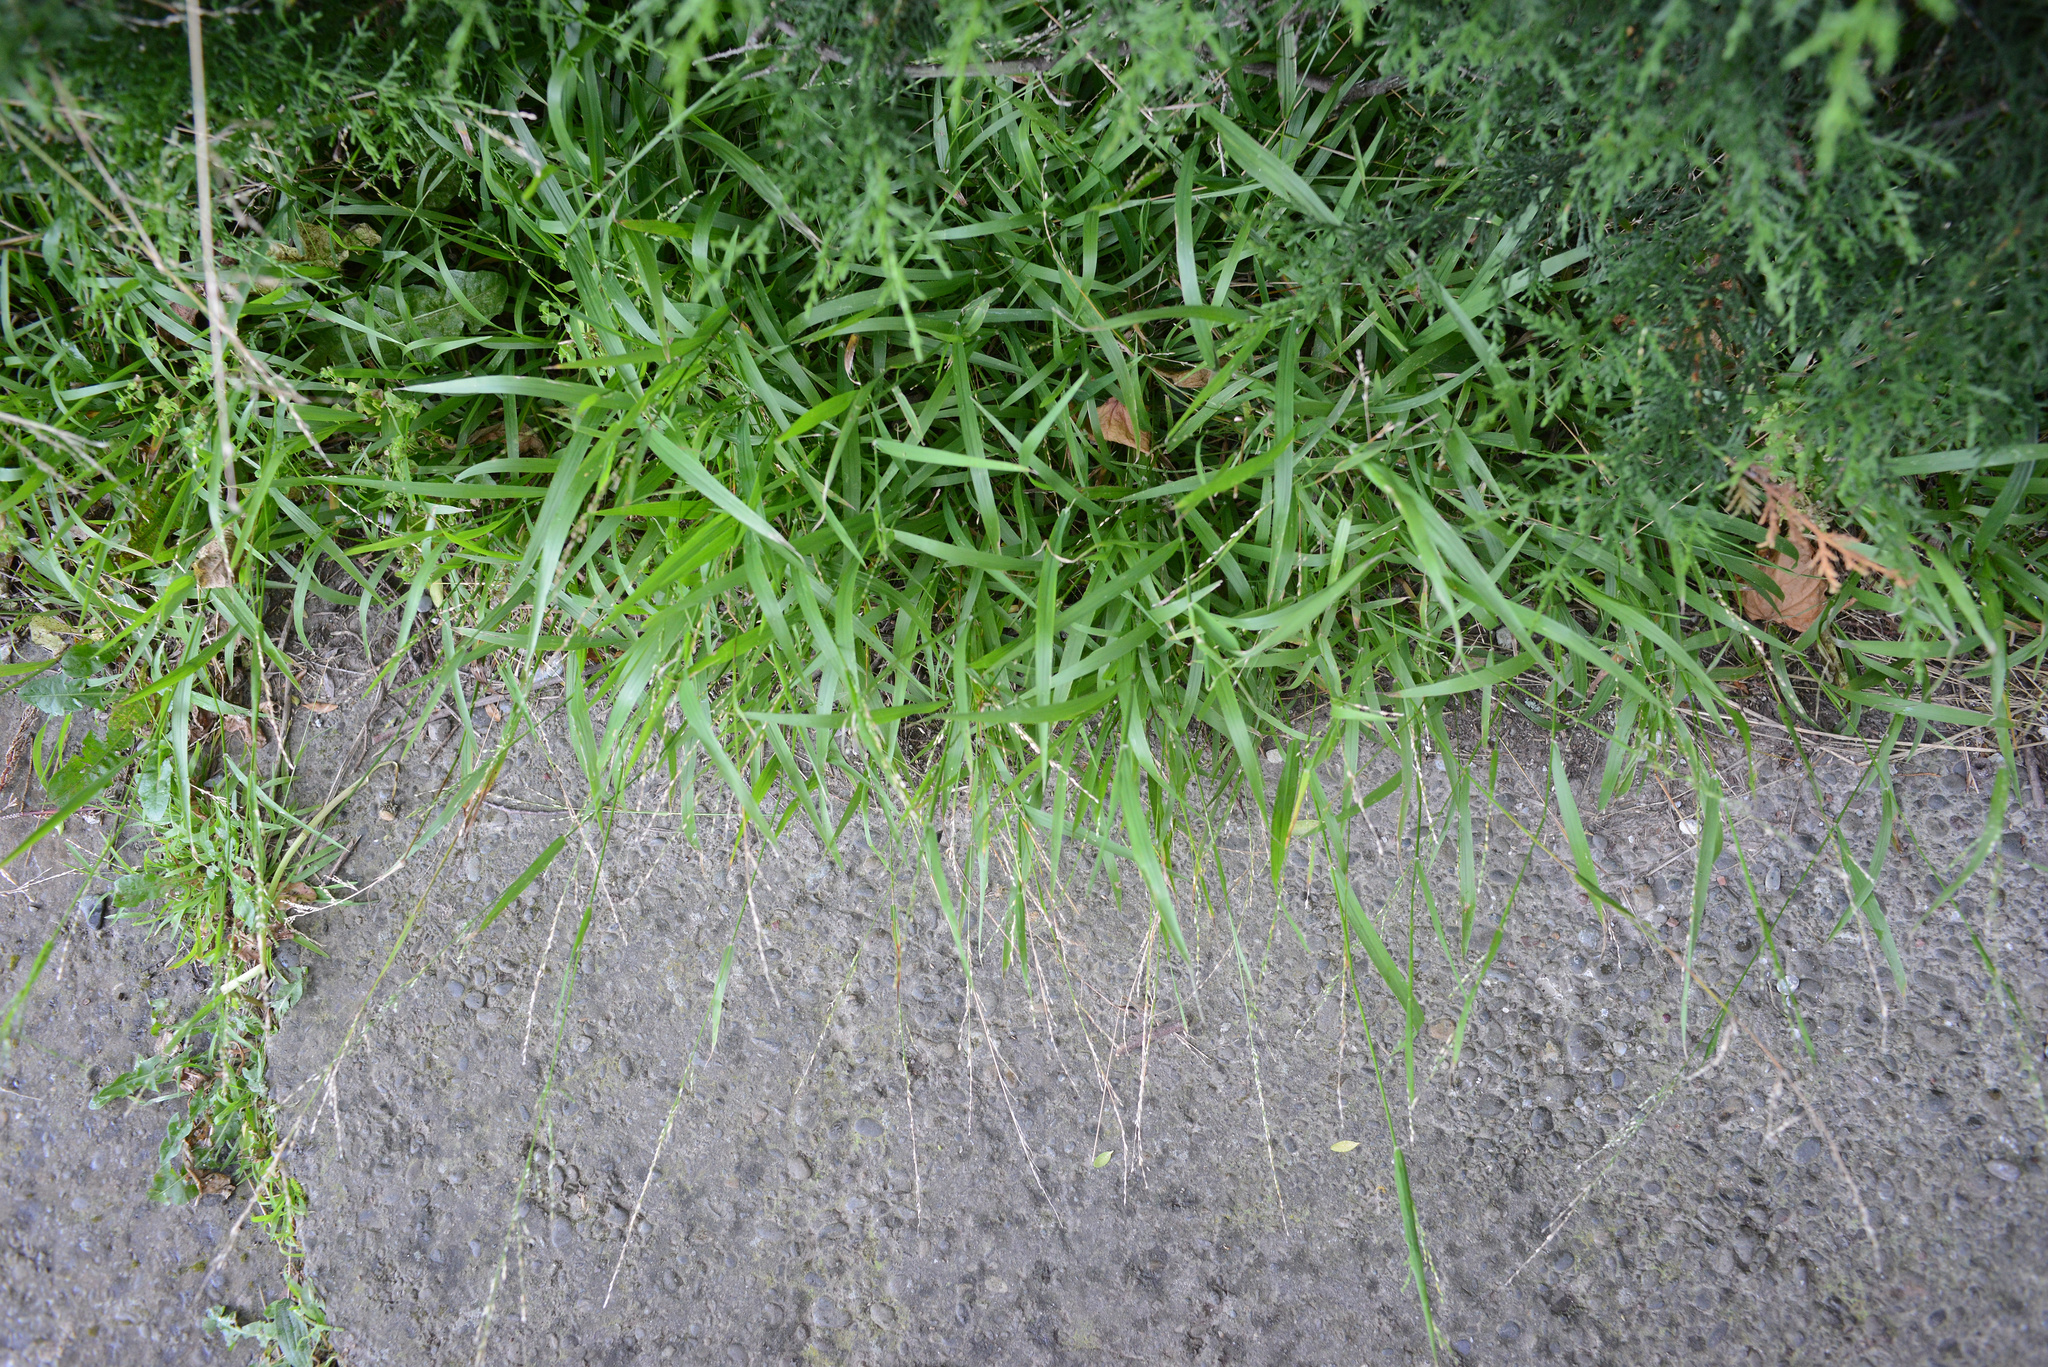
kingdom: Plantae
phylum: Tracheophyta
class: Liliopsida
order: Poales
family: Poaceae
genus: Ehrharta
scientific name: Ehrharta erecta
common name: Panic veldtgrass
